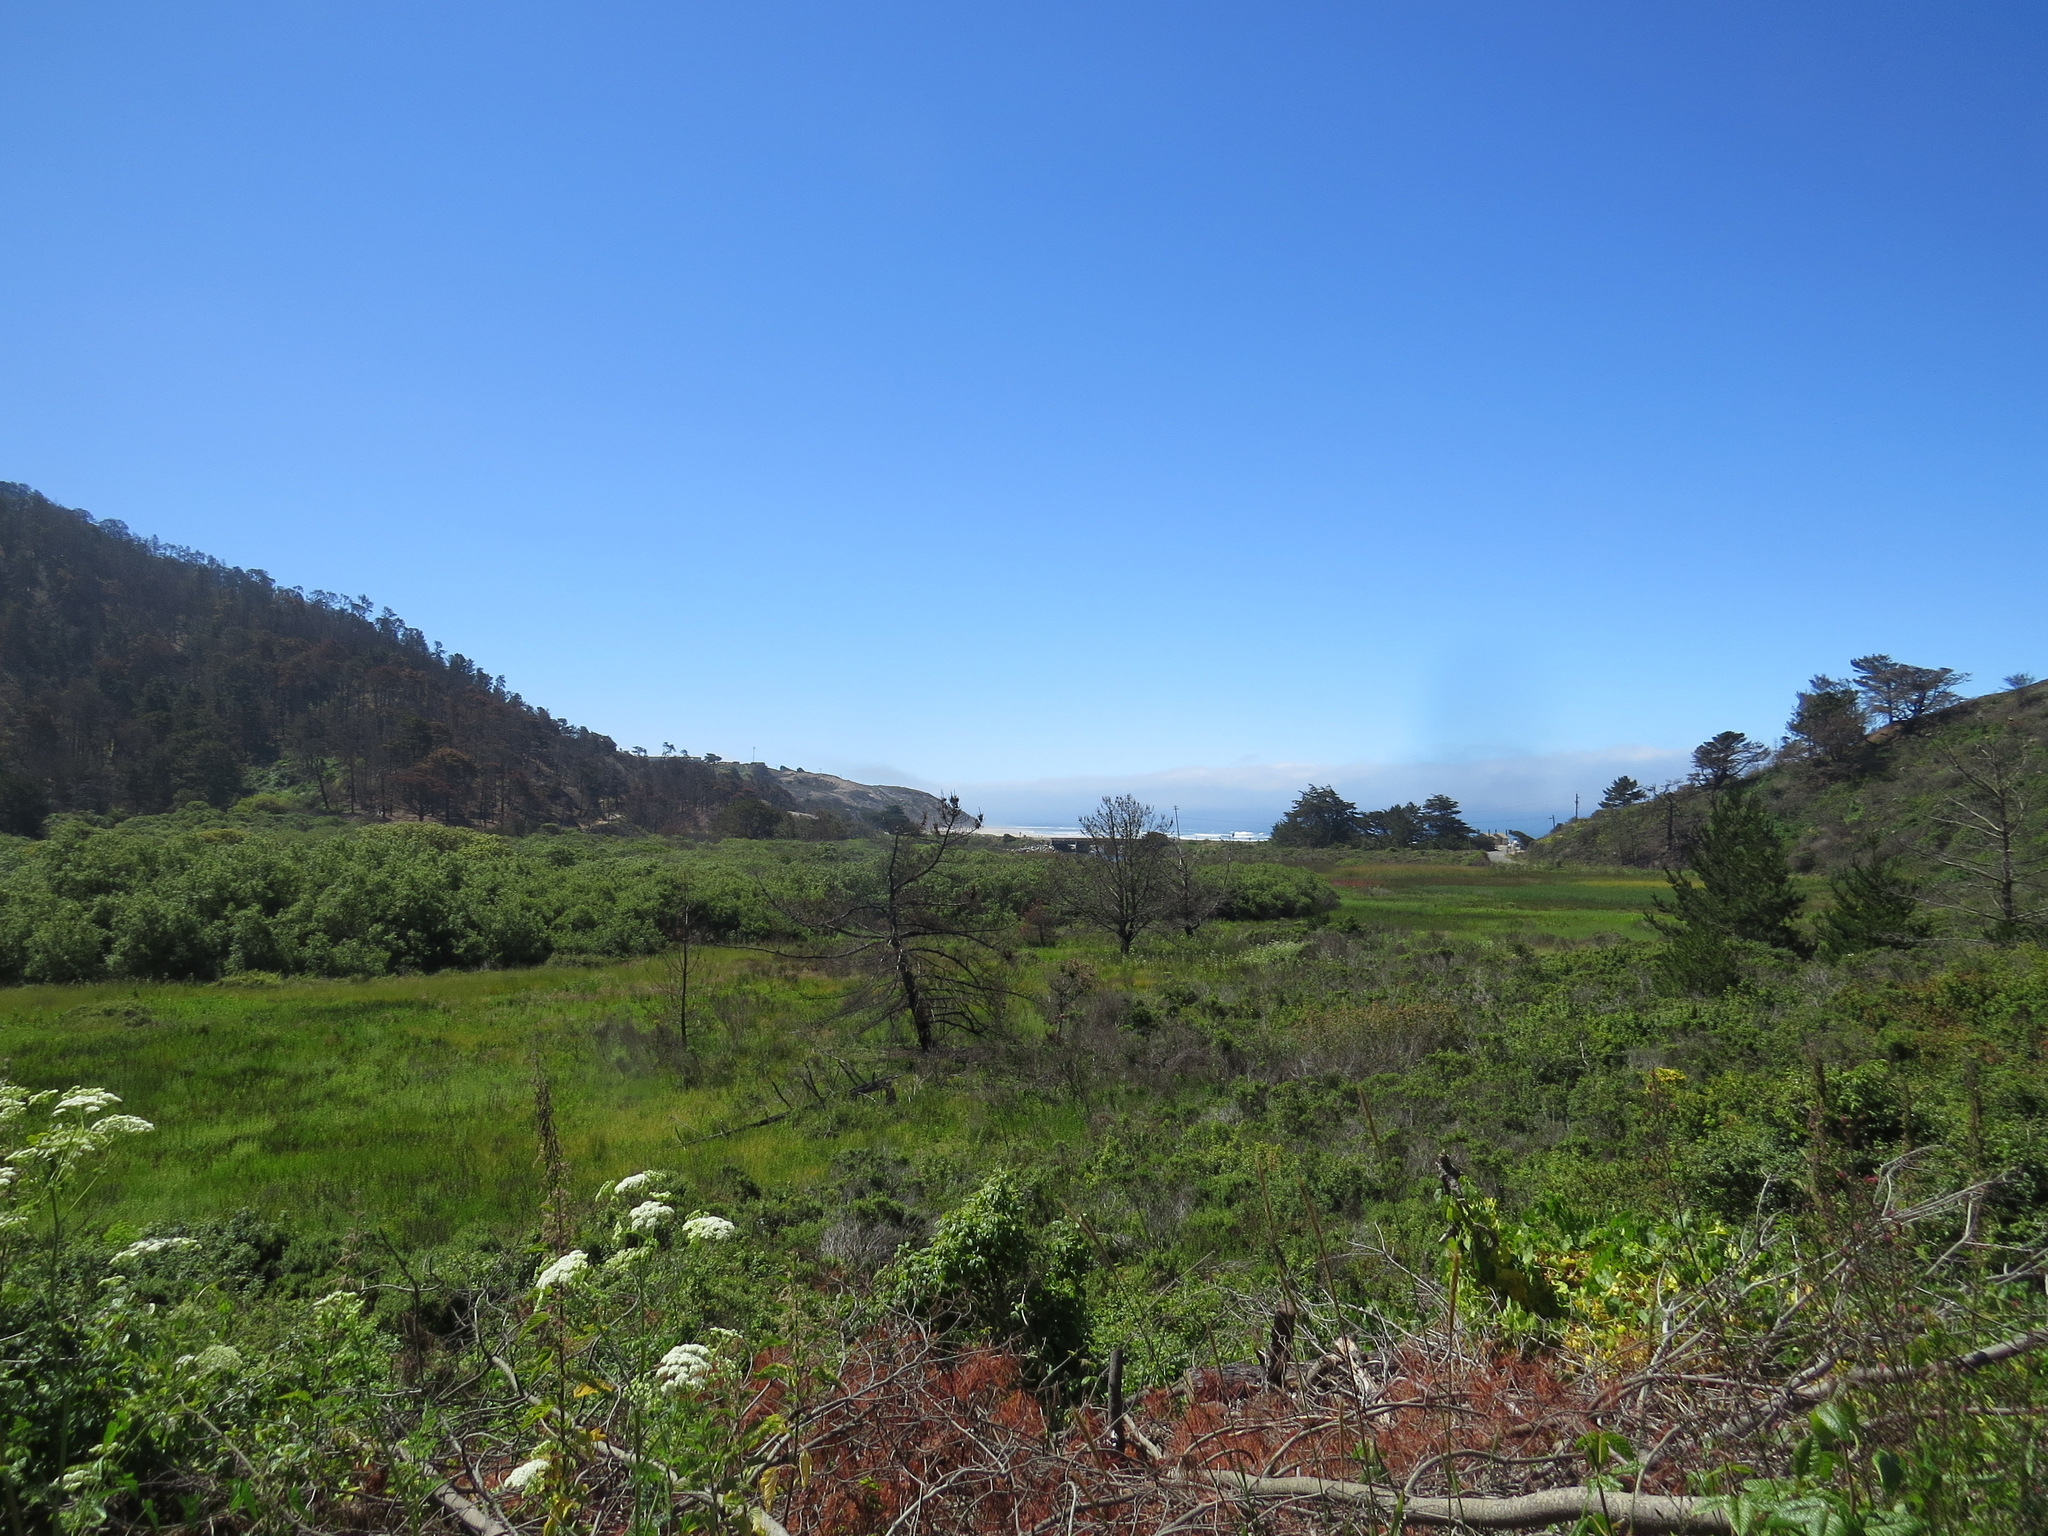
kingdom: Plantae
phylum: Tracheophyta
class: Pinopsida
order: Pinales
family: Pinaceae
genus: Pinus
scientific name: Pinus radiata
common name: Monterey pine
